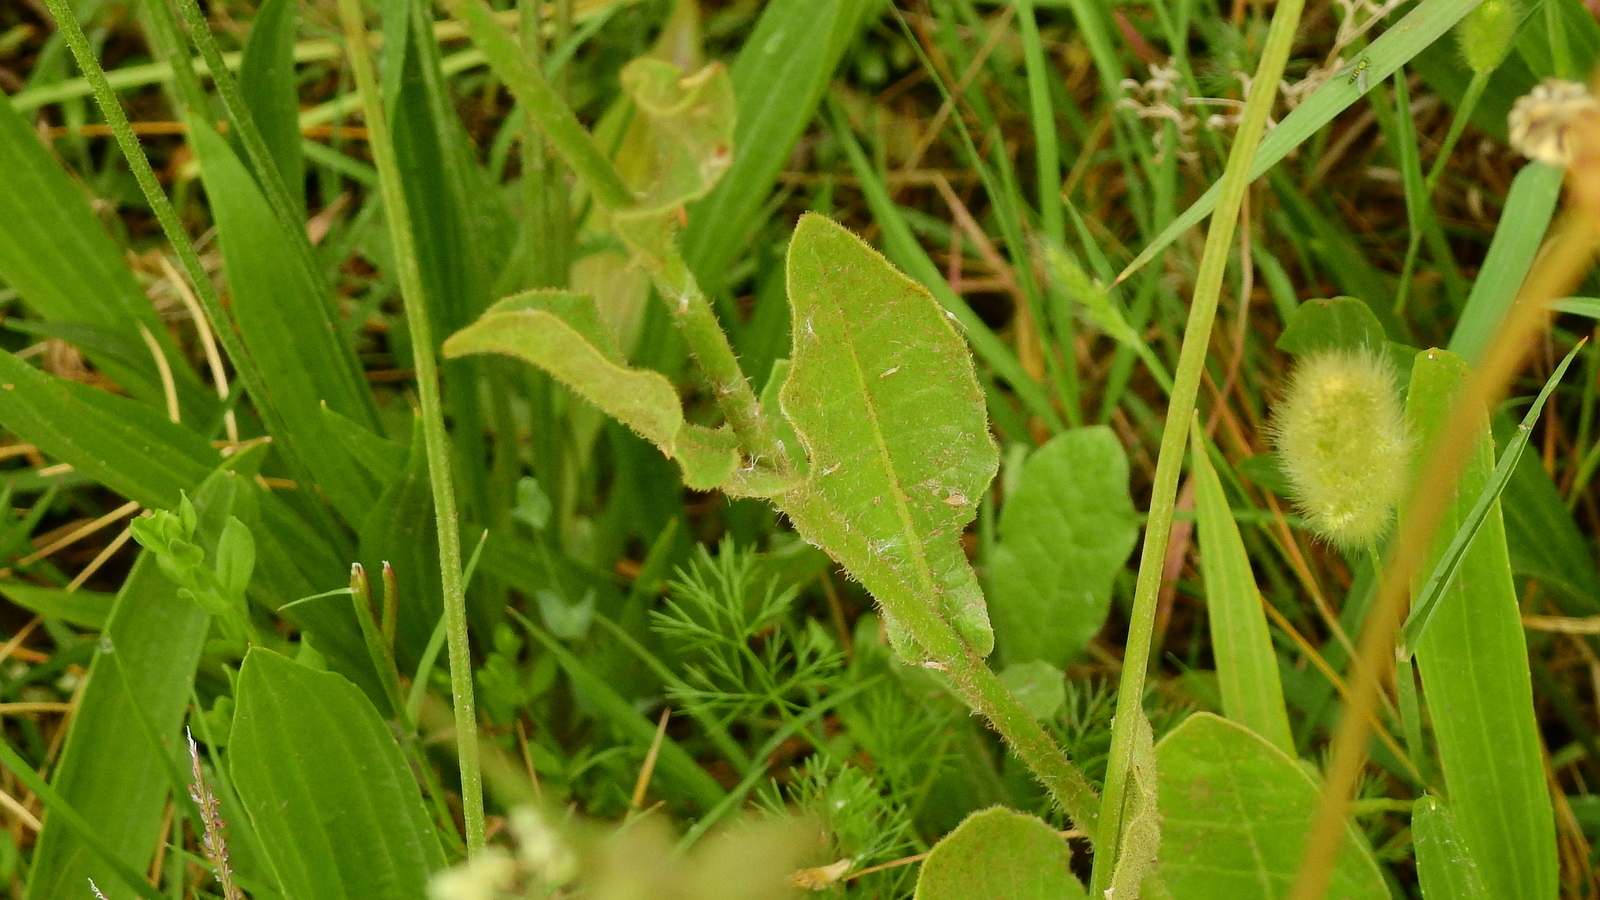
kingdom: Plantae
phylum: Tracheophyta
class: Magnoliopsida
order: Solanales
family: Solanaceae
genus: Nicotiana
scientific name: Nicotiana longiflora
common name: Long-flowered tobacco
